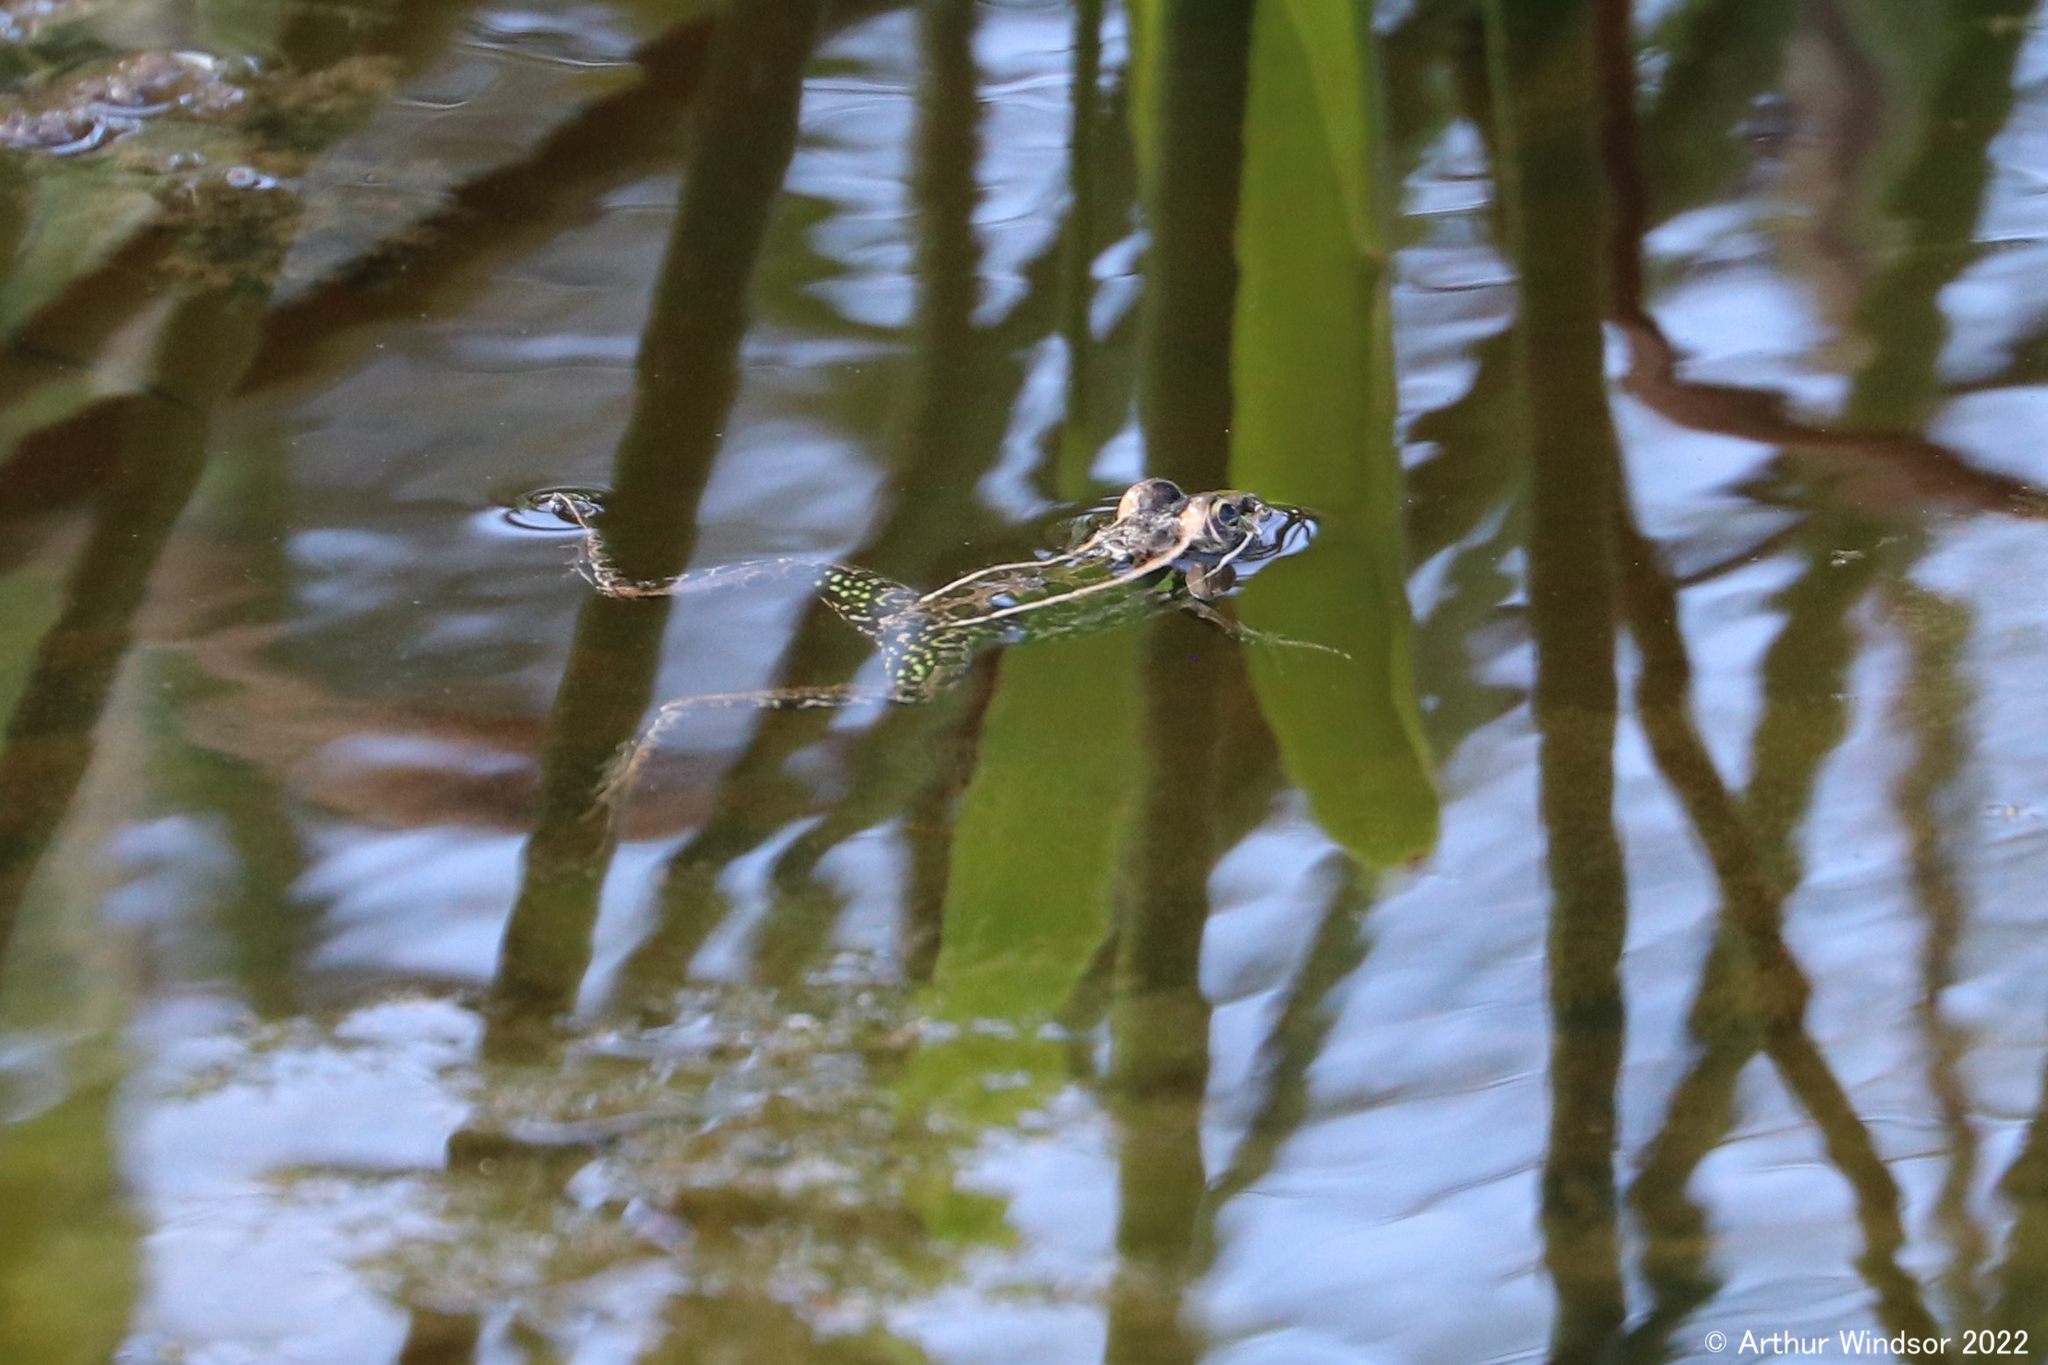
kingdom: Animalia
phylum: Chordata
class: Amphibia
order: Anura
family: Ranidae
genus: Lithobates
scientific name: Lithobates sphenocephalus
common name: Southern leopard frog
